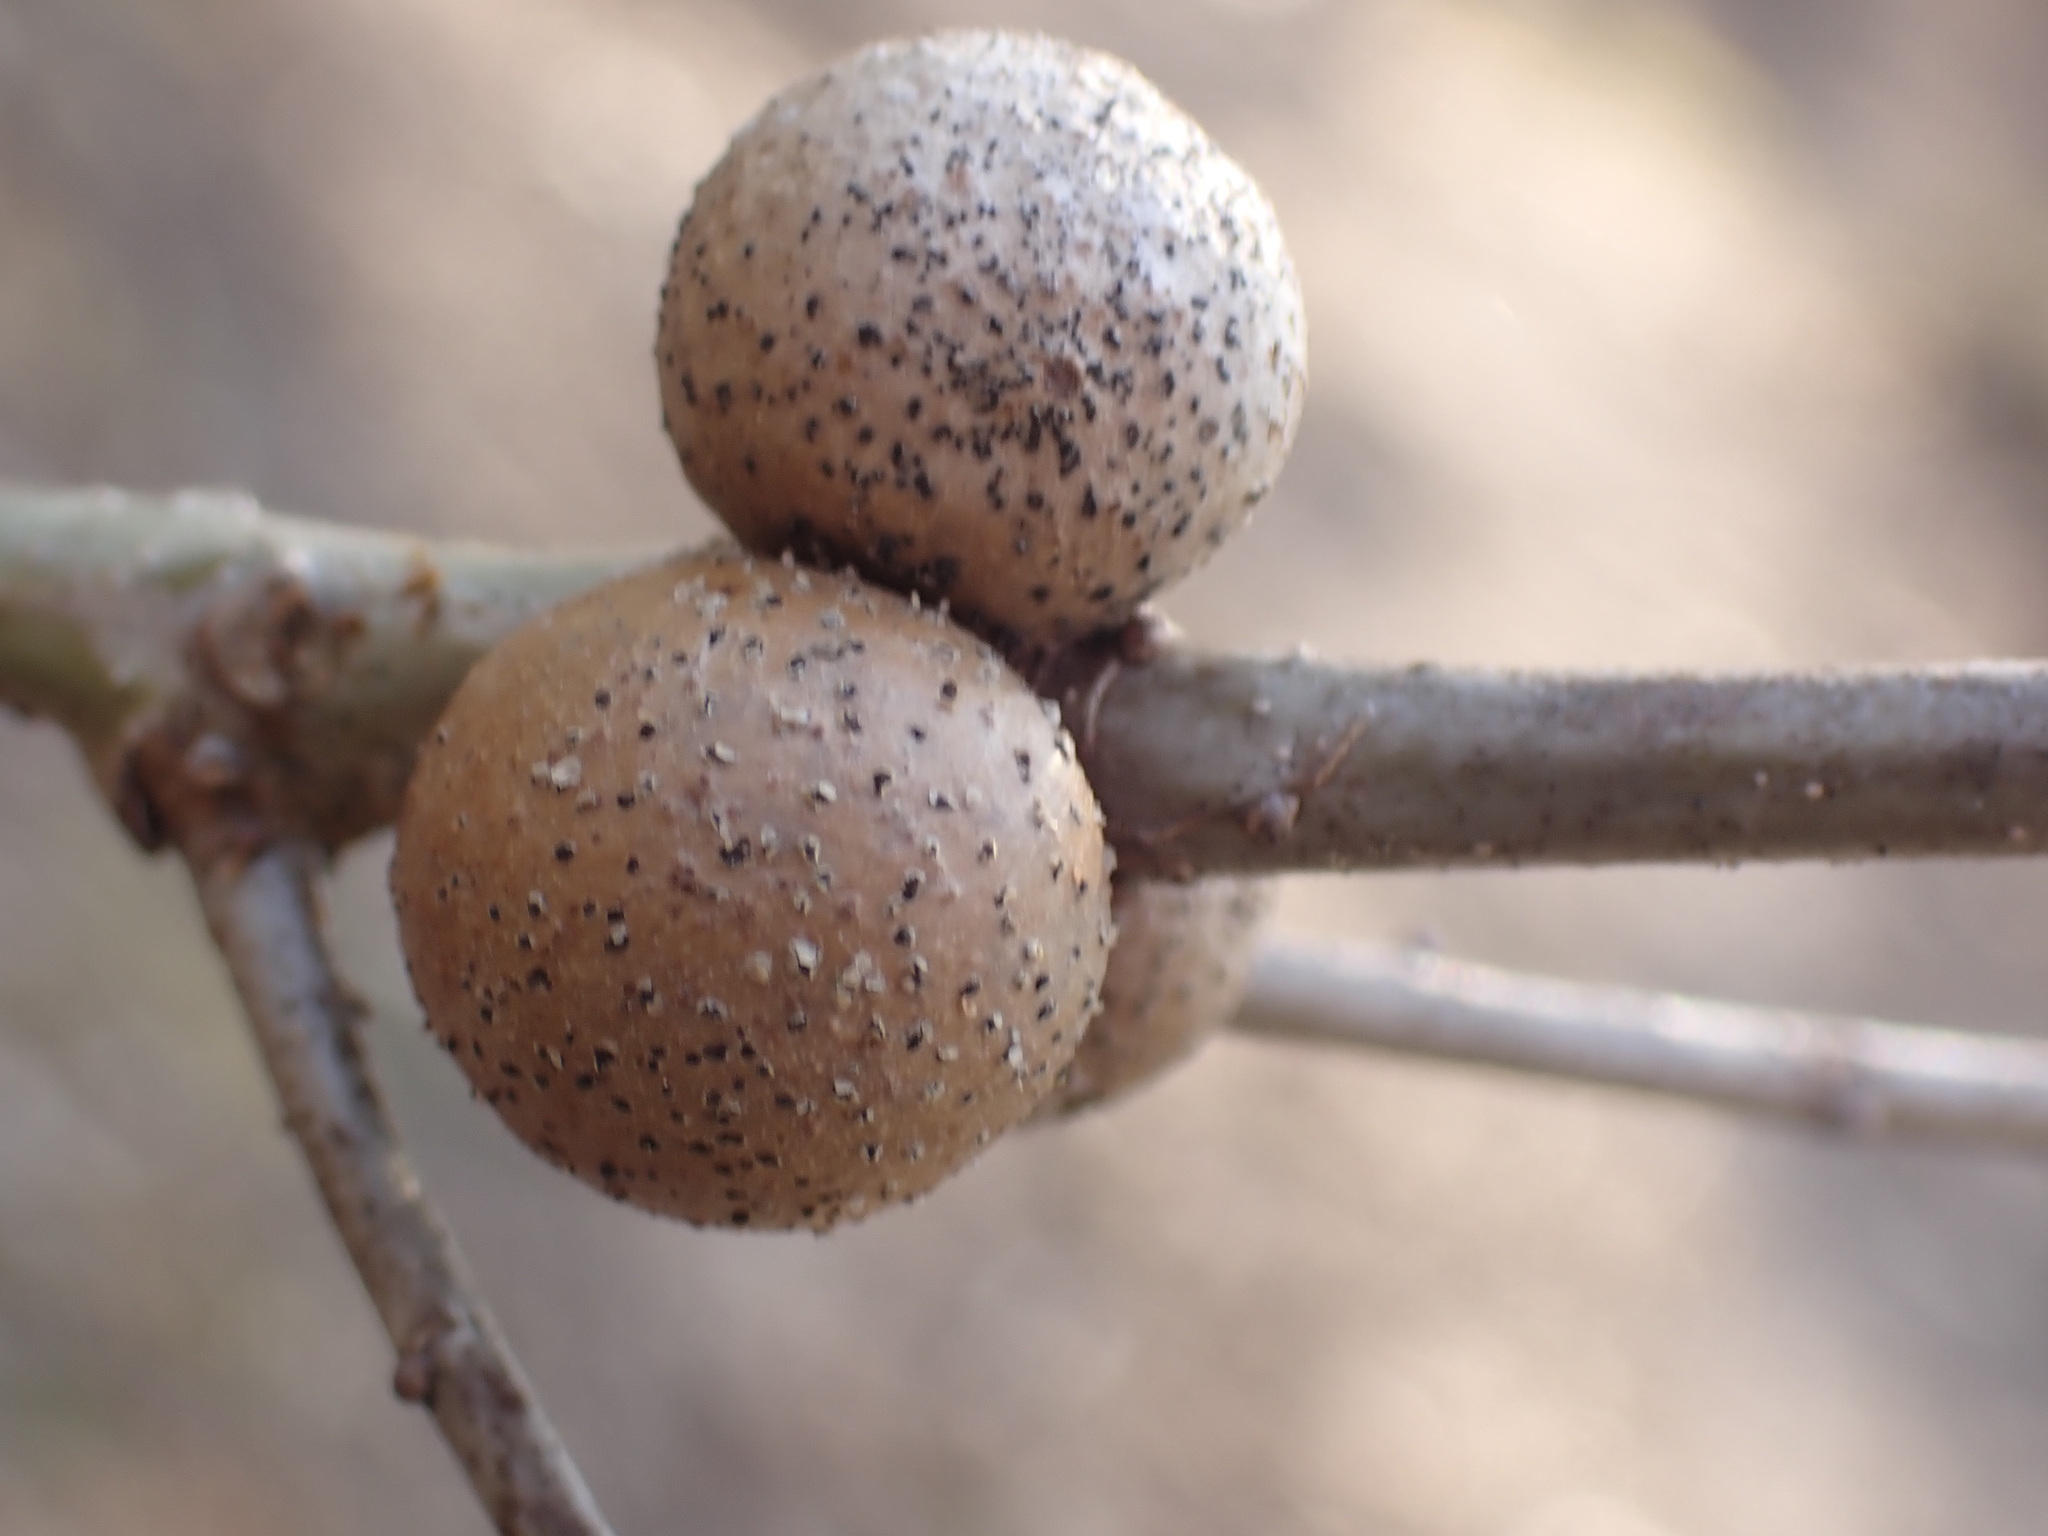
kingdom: Animalia
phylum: Arthropoda
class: Insecta
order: Hymenoptera
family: Cynipidae
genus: Disholcaspis
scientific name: Disholcaspis quercusglobulus
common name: Round bullet gall wasp
